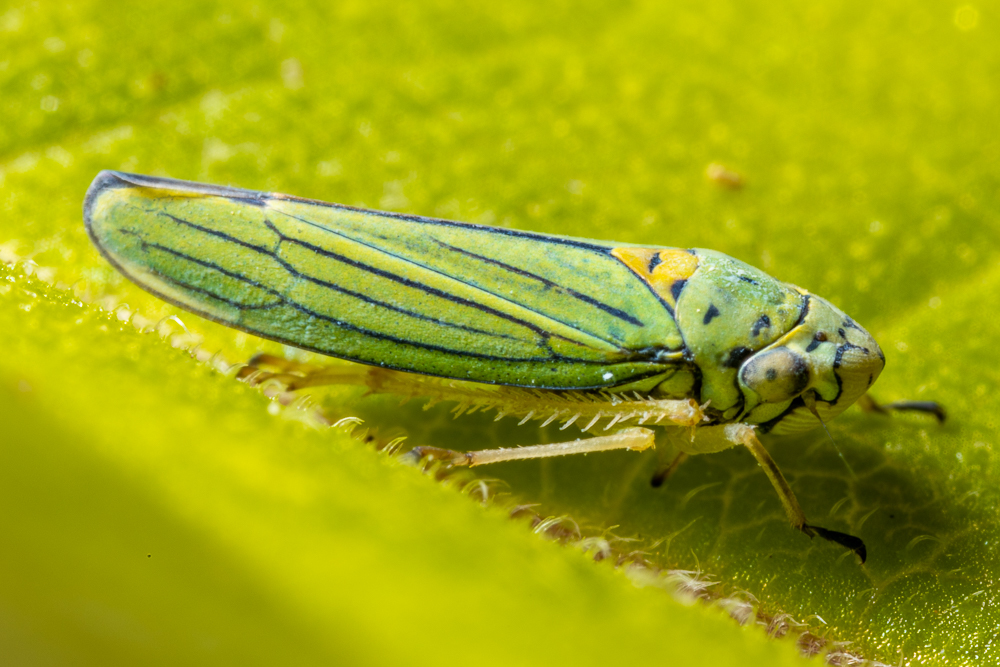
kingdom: Animalia
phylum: Arthropoda
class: Insecta
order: Hemiptera
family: Cicadellidae
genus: Graphocephala
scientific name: Graphocephala atropunctata
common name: Blue-green sharpshooter
